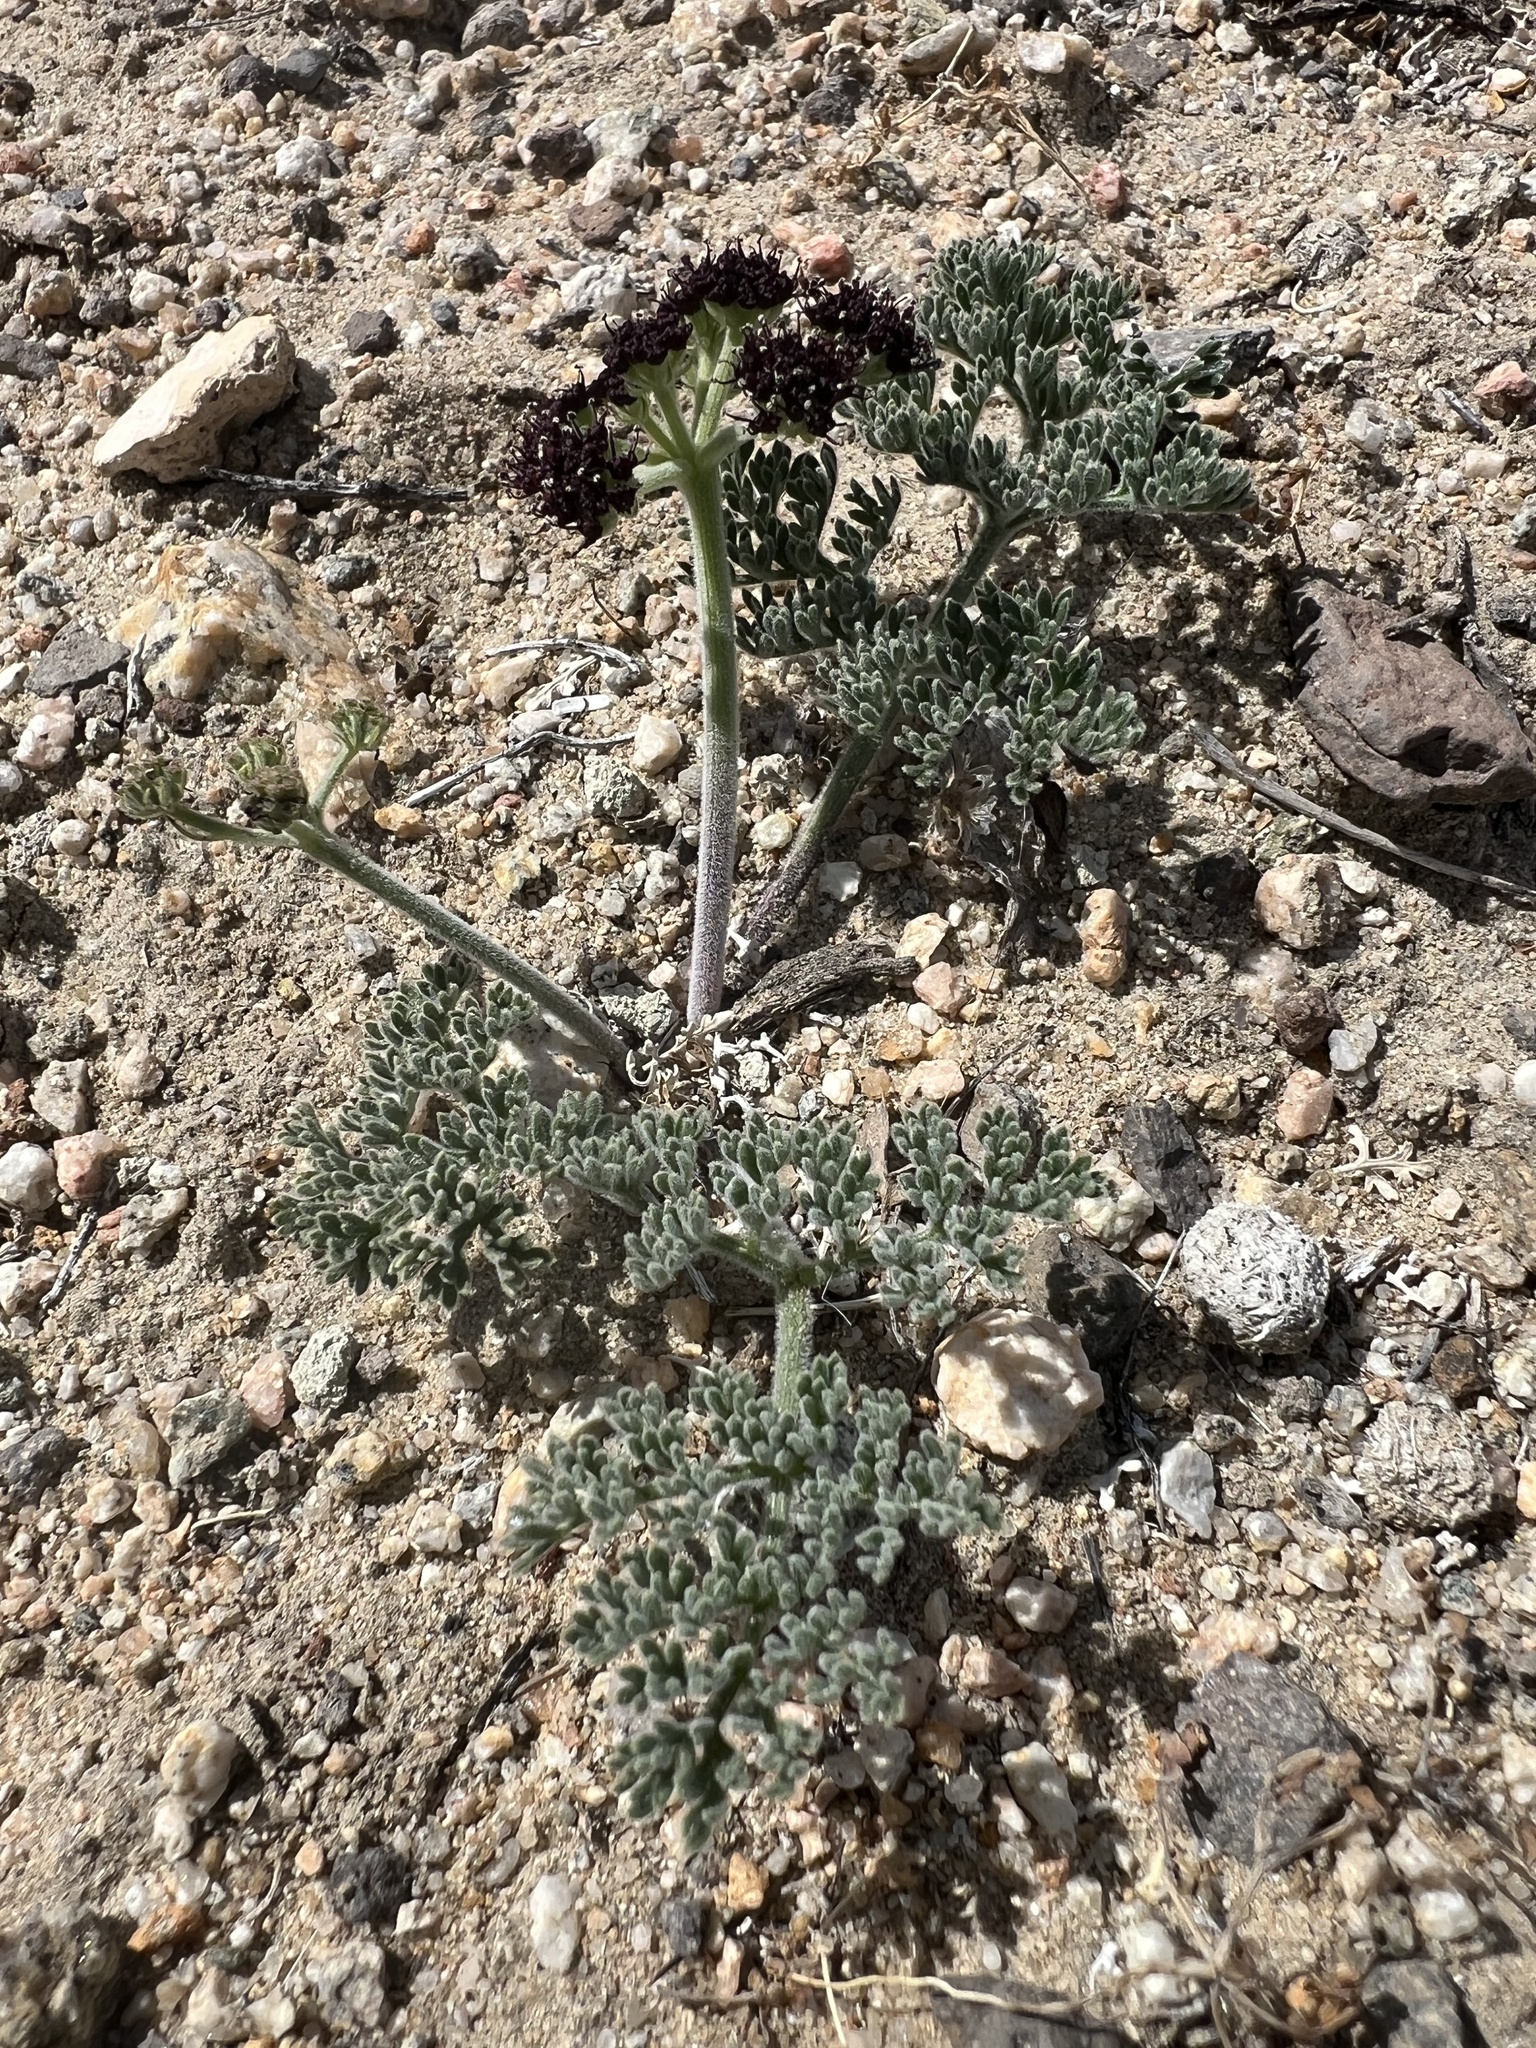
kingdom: Plantae
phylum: Tracheophyta
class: Magnoliopsida
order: Apiales
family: Apiaceae
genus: Lomatium
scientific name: Lomatium mohavense
